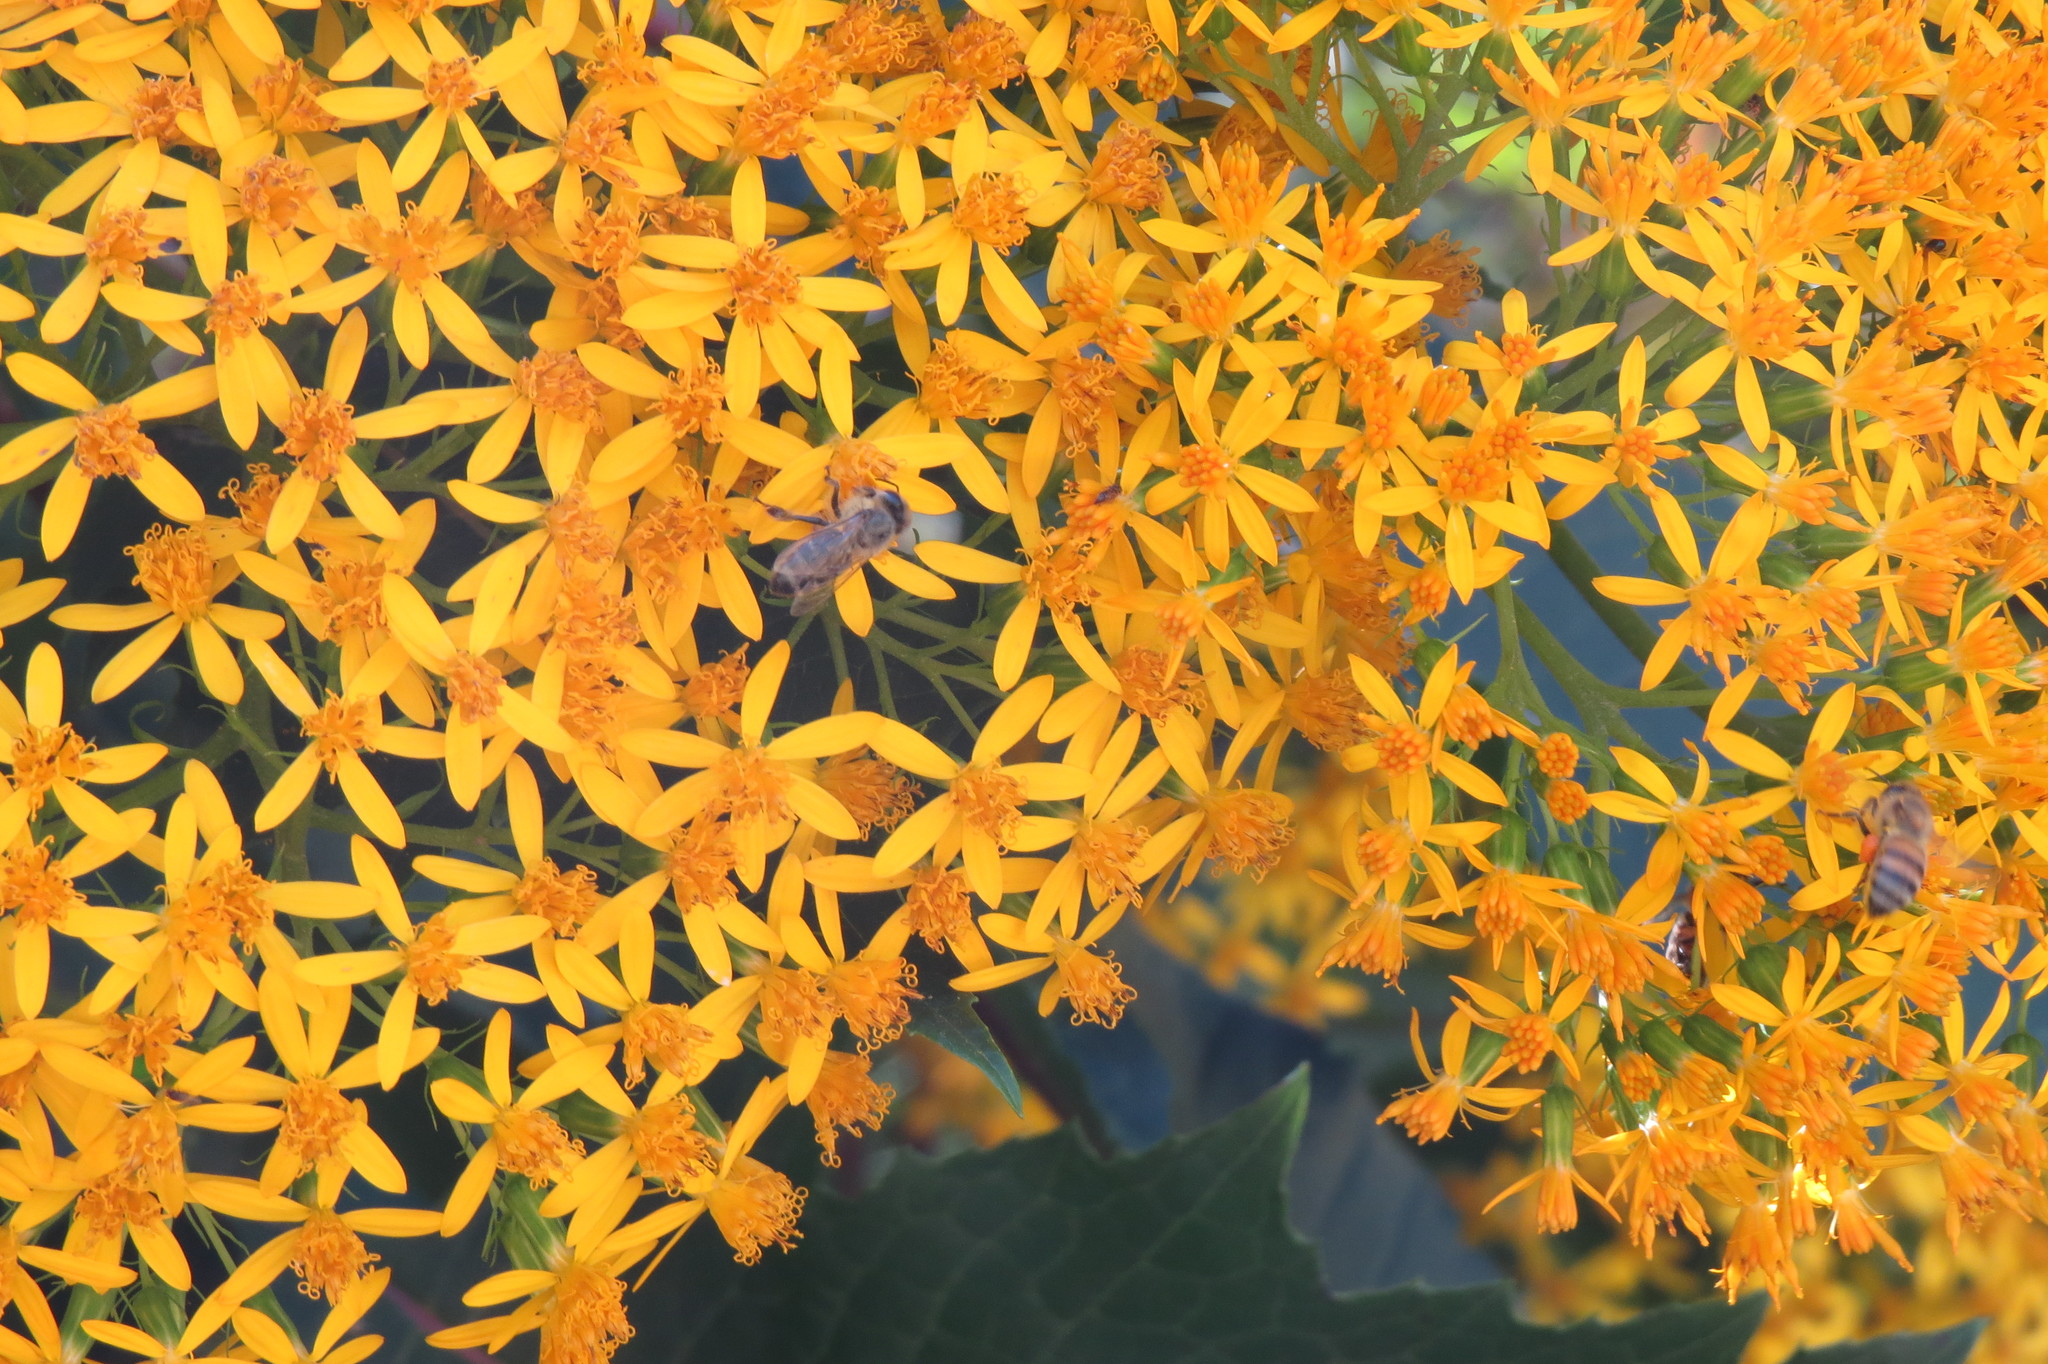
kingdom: Animalia
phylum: Arthropoda
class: Insecta
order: Hymenoptera
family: Apidae
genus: Apis
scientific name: Apis mellifera
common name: Honey bee
